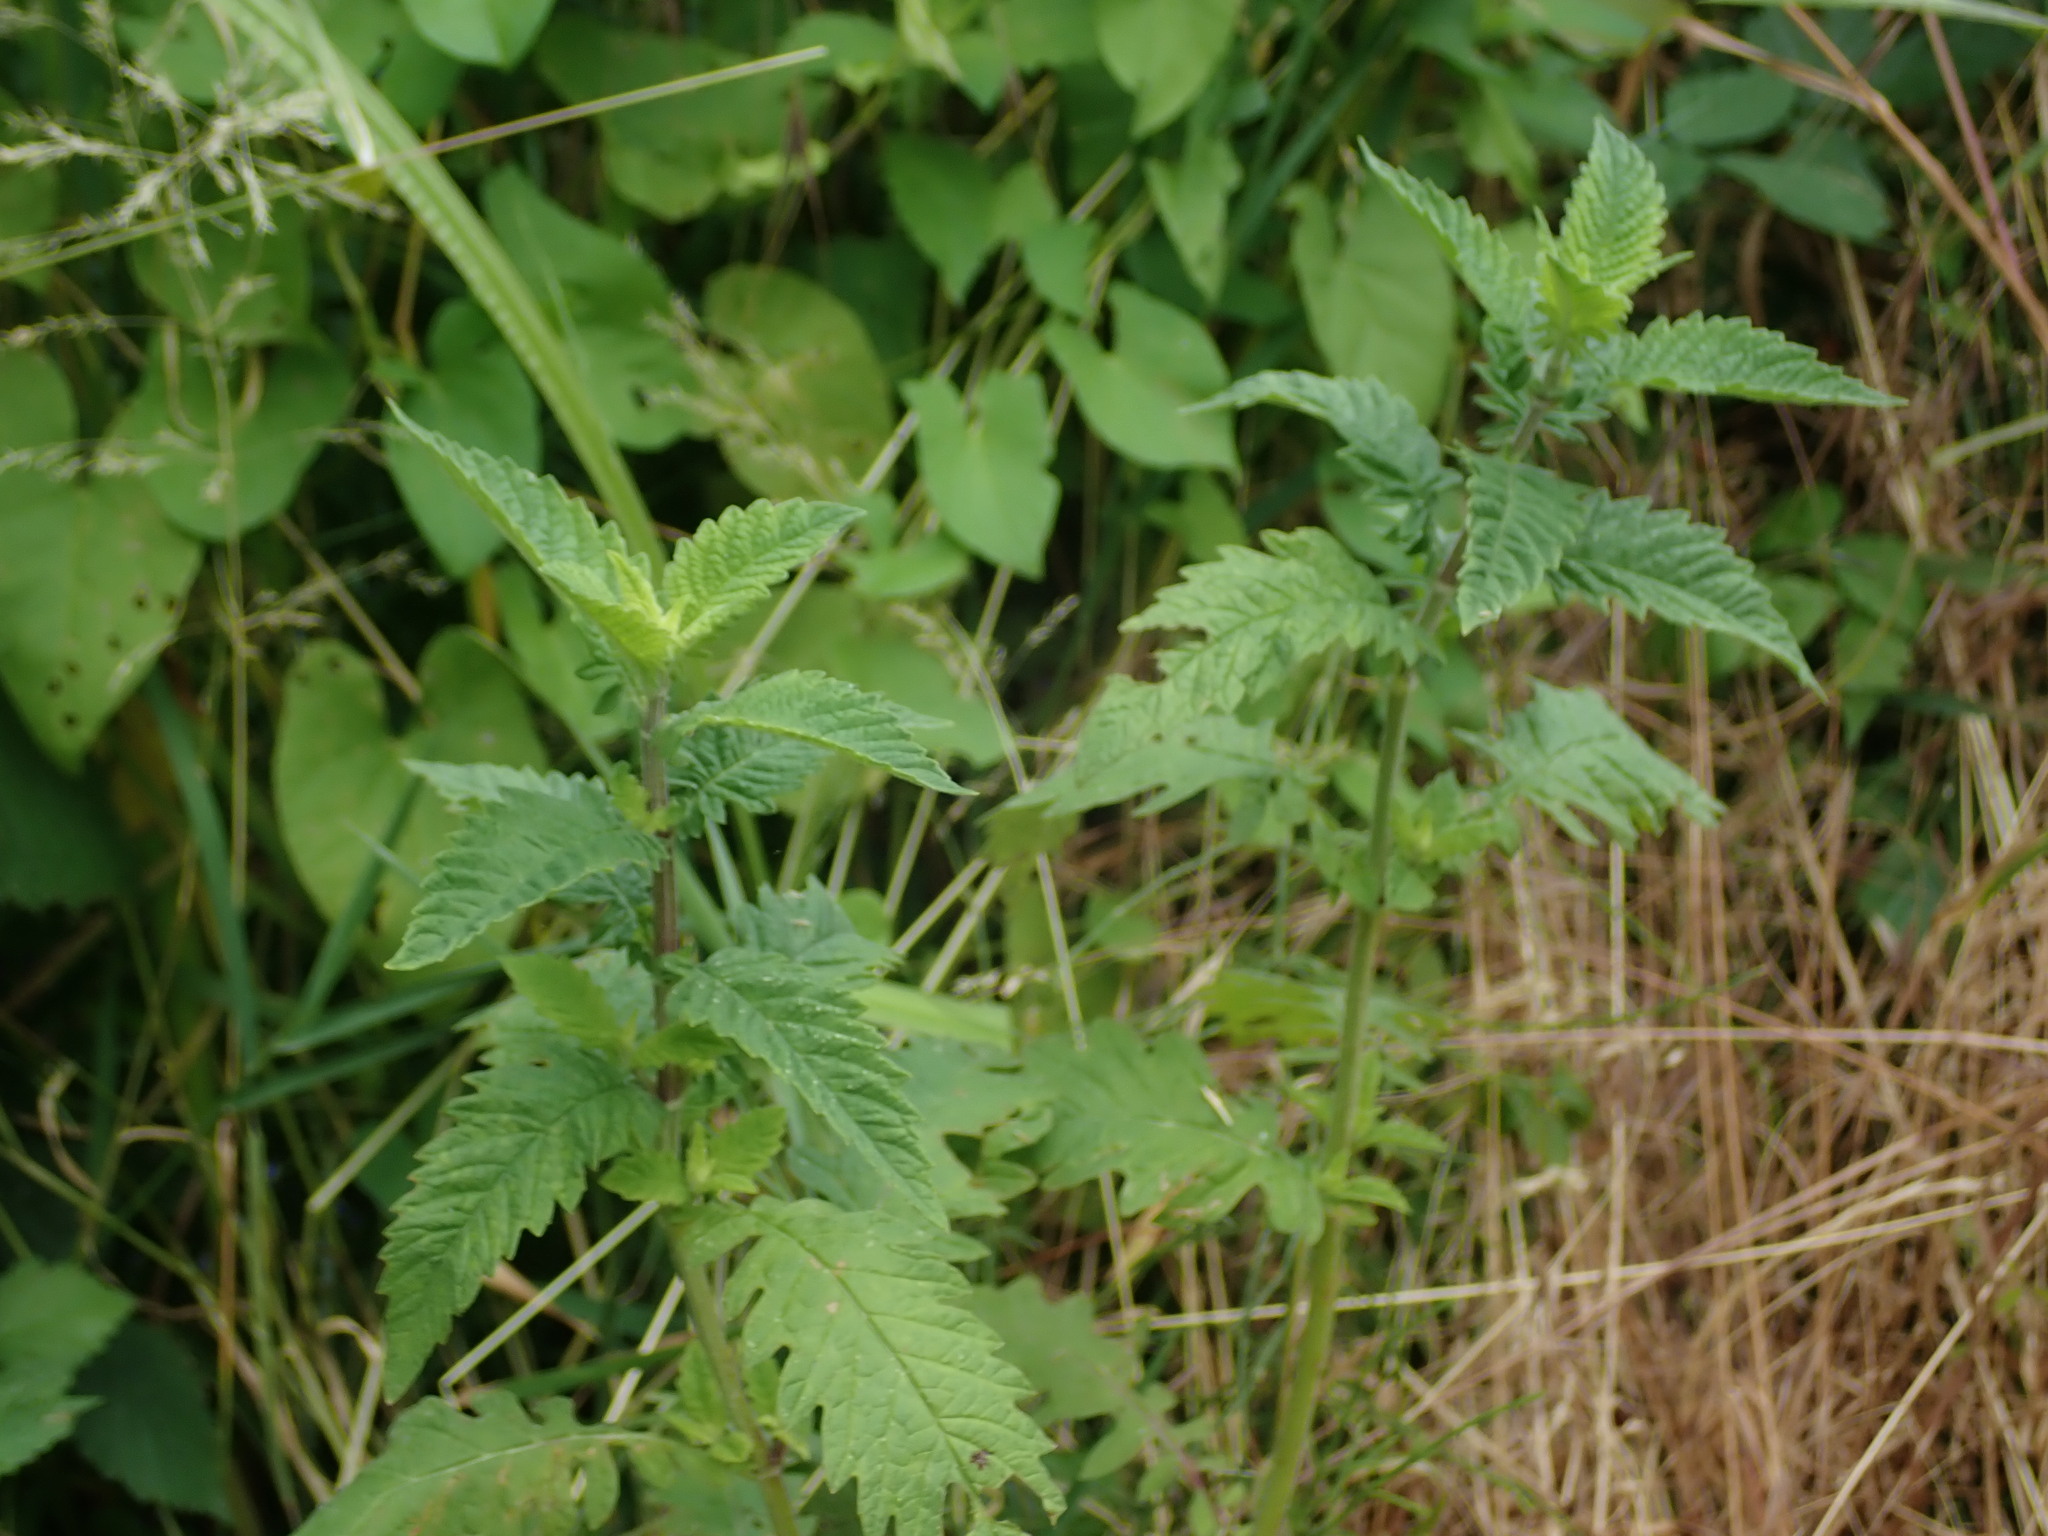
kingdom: Plantae
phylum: Tracheophyta
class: Magnoliopsida
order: Lamiales
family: Lamiaceae
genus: Lycopus
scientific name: Lycopus europaeus
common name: European bugleweed
